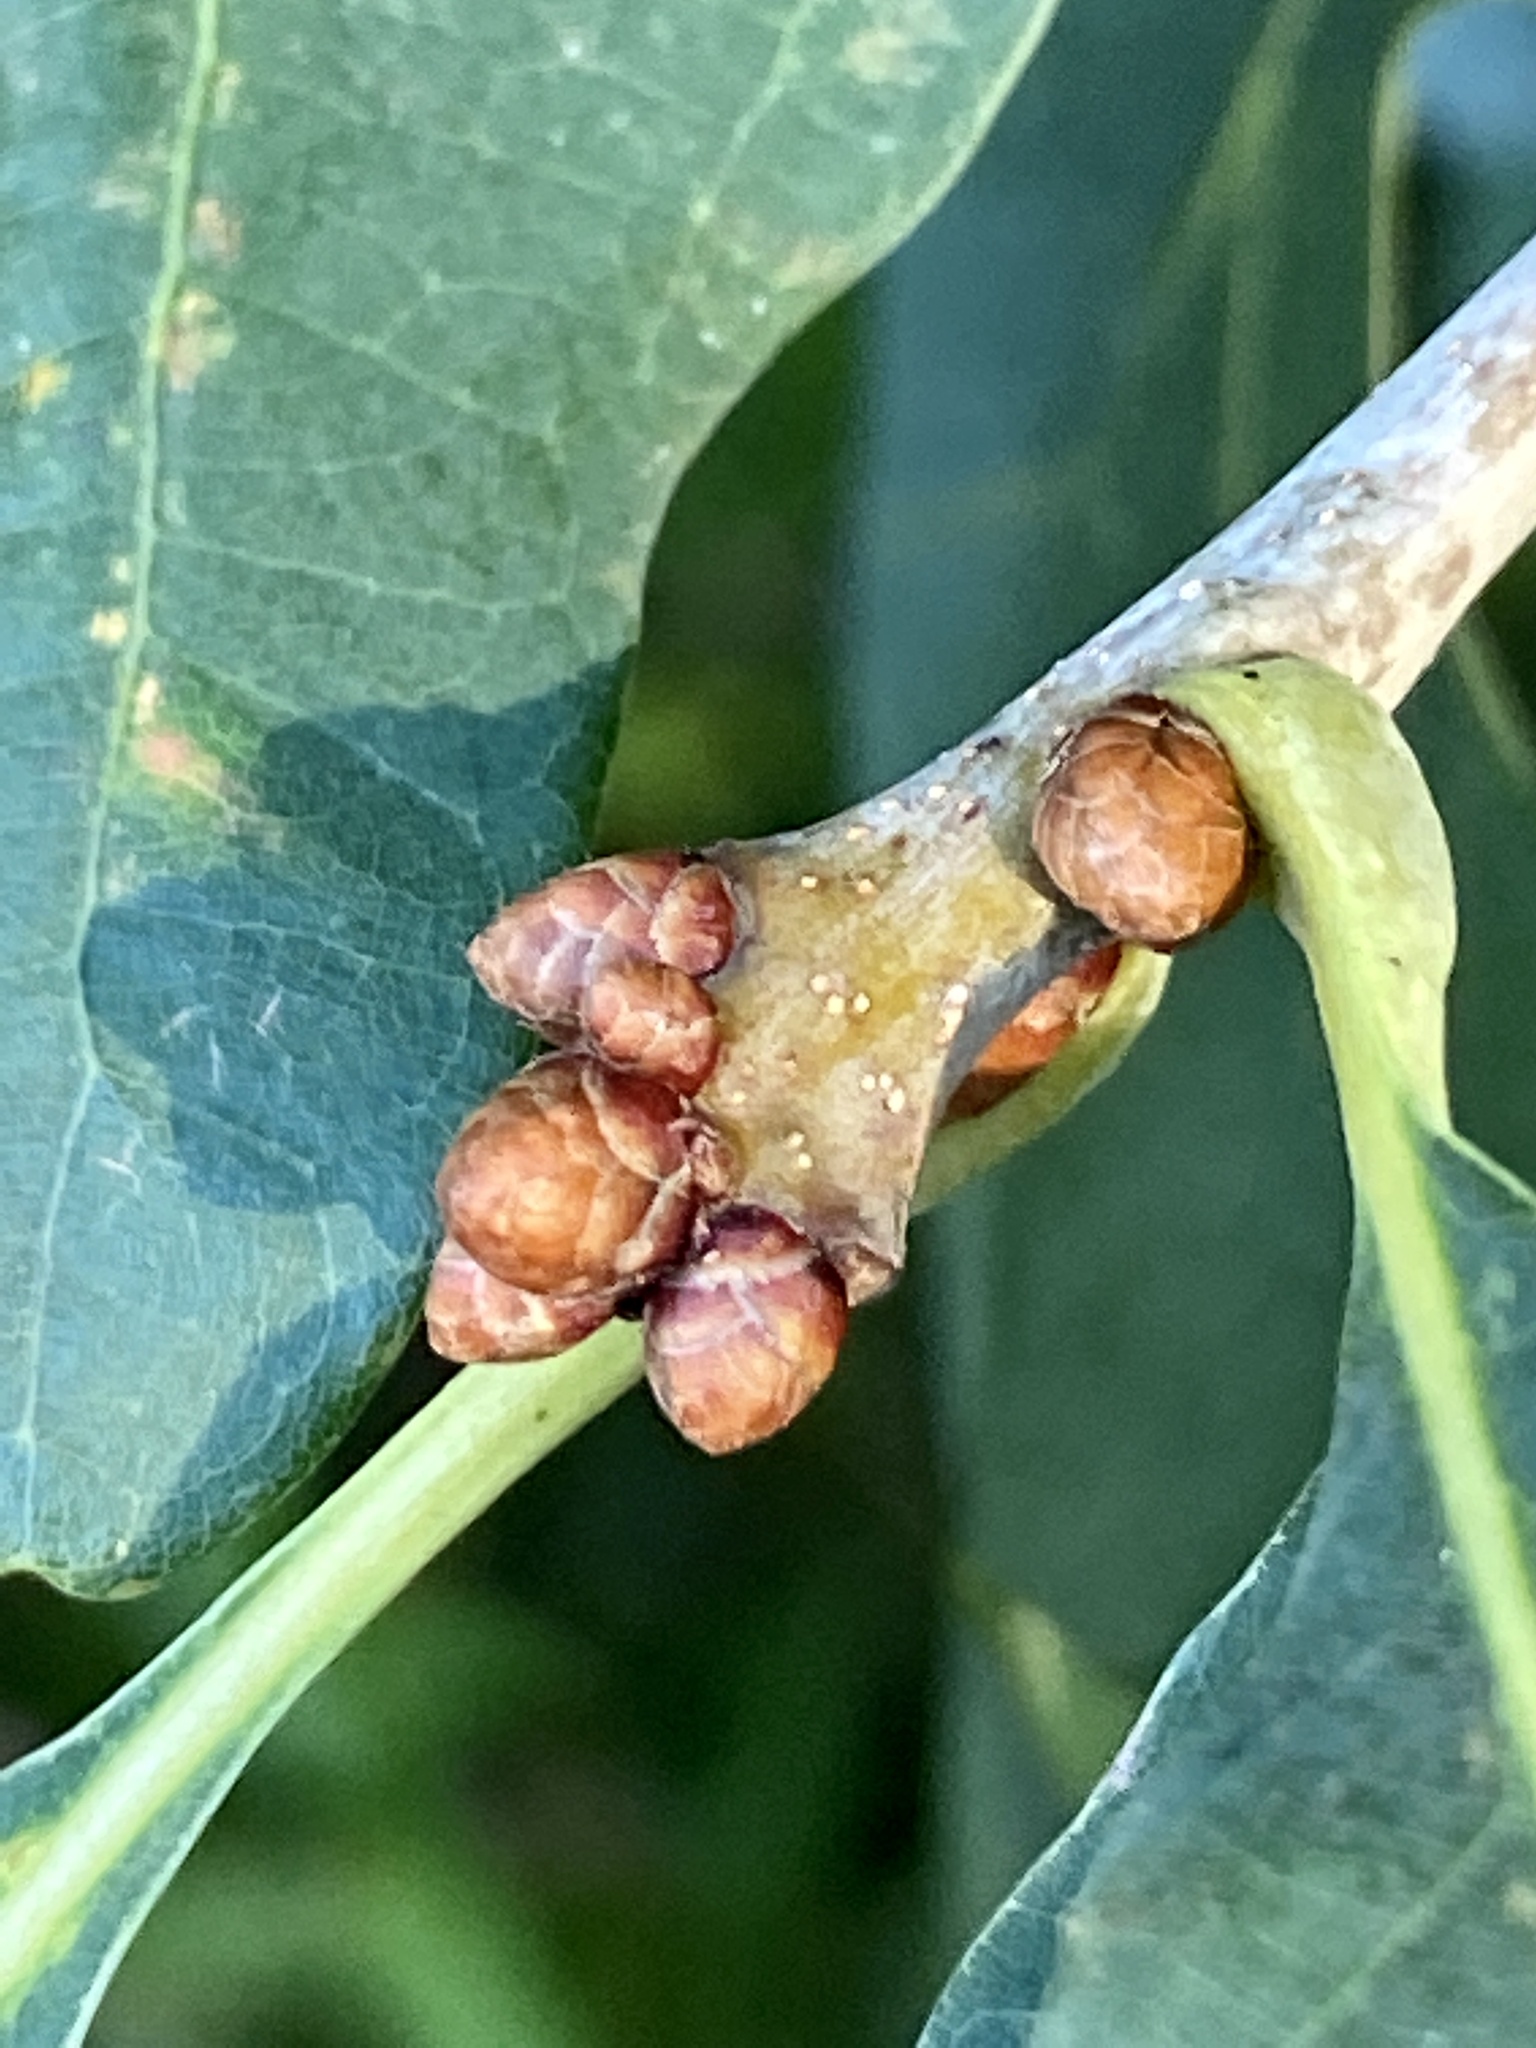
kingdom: Plantae
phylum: Tracheophyta
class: Magnoliopsida
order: Fagales
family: Fagaceae
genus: Quercus
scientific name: Quercus alba
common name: White oak
